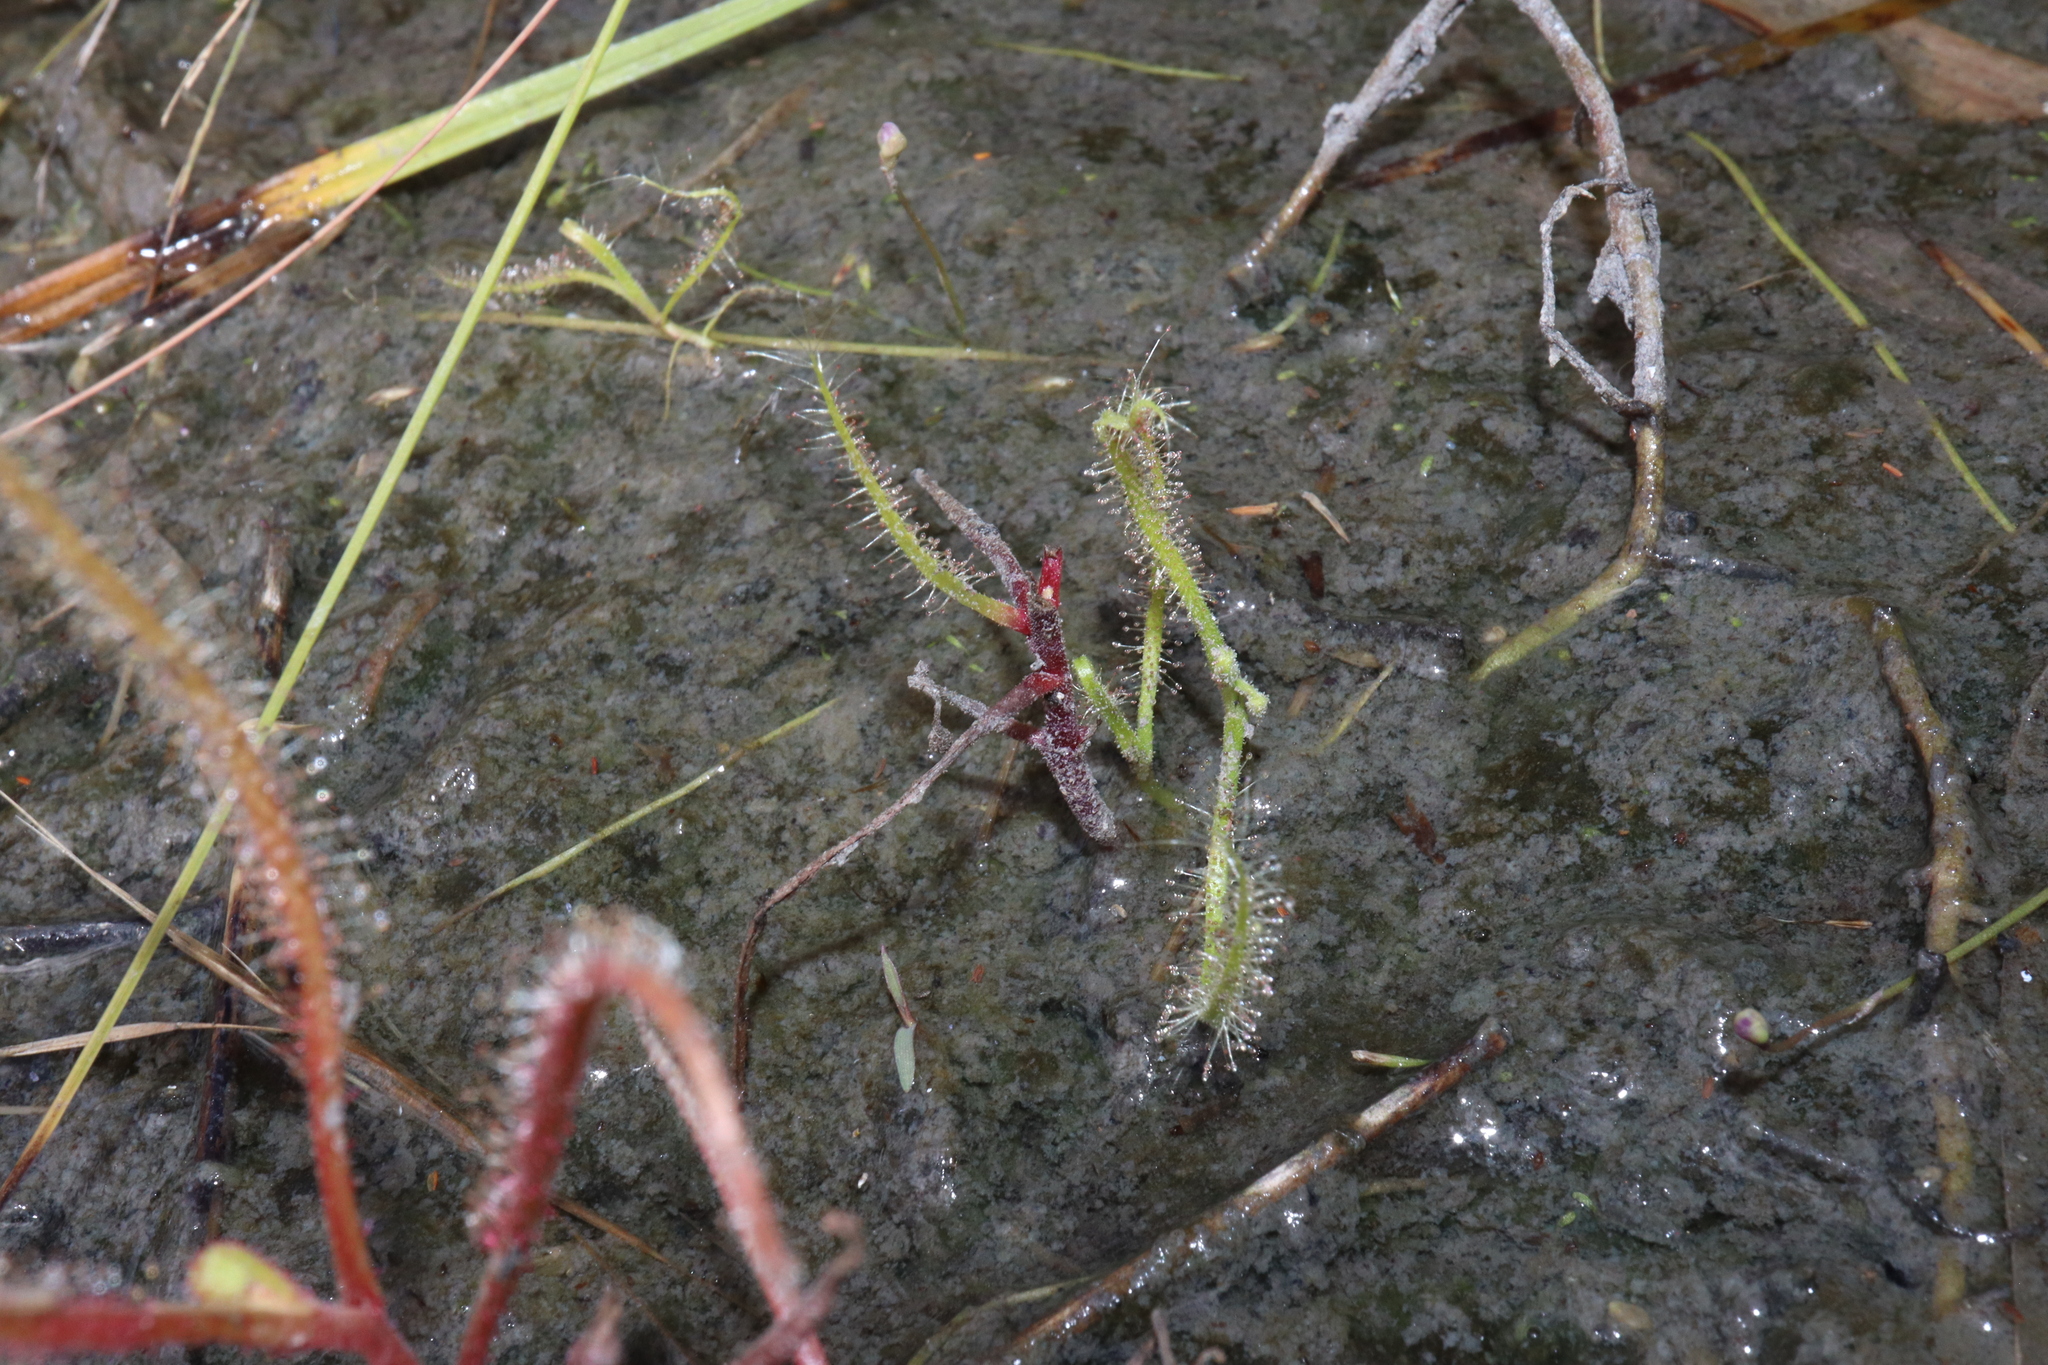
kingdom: Plantae
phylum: Tracheophyta
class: Magnoliopsida
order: Caryophyllales
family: Droseraceae
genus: Drosera
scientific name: Drosera indica
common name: Indian sundew
